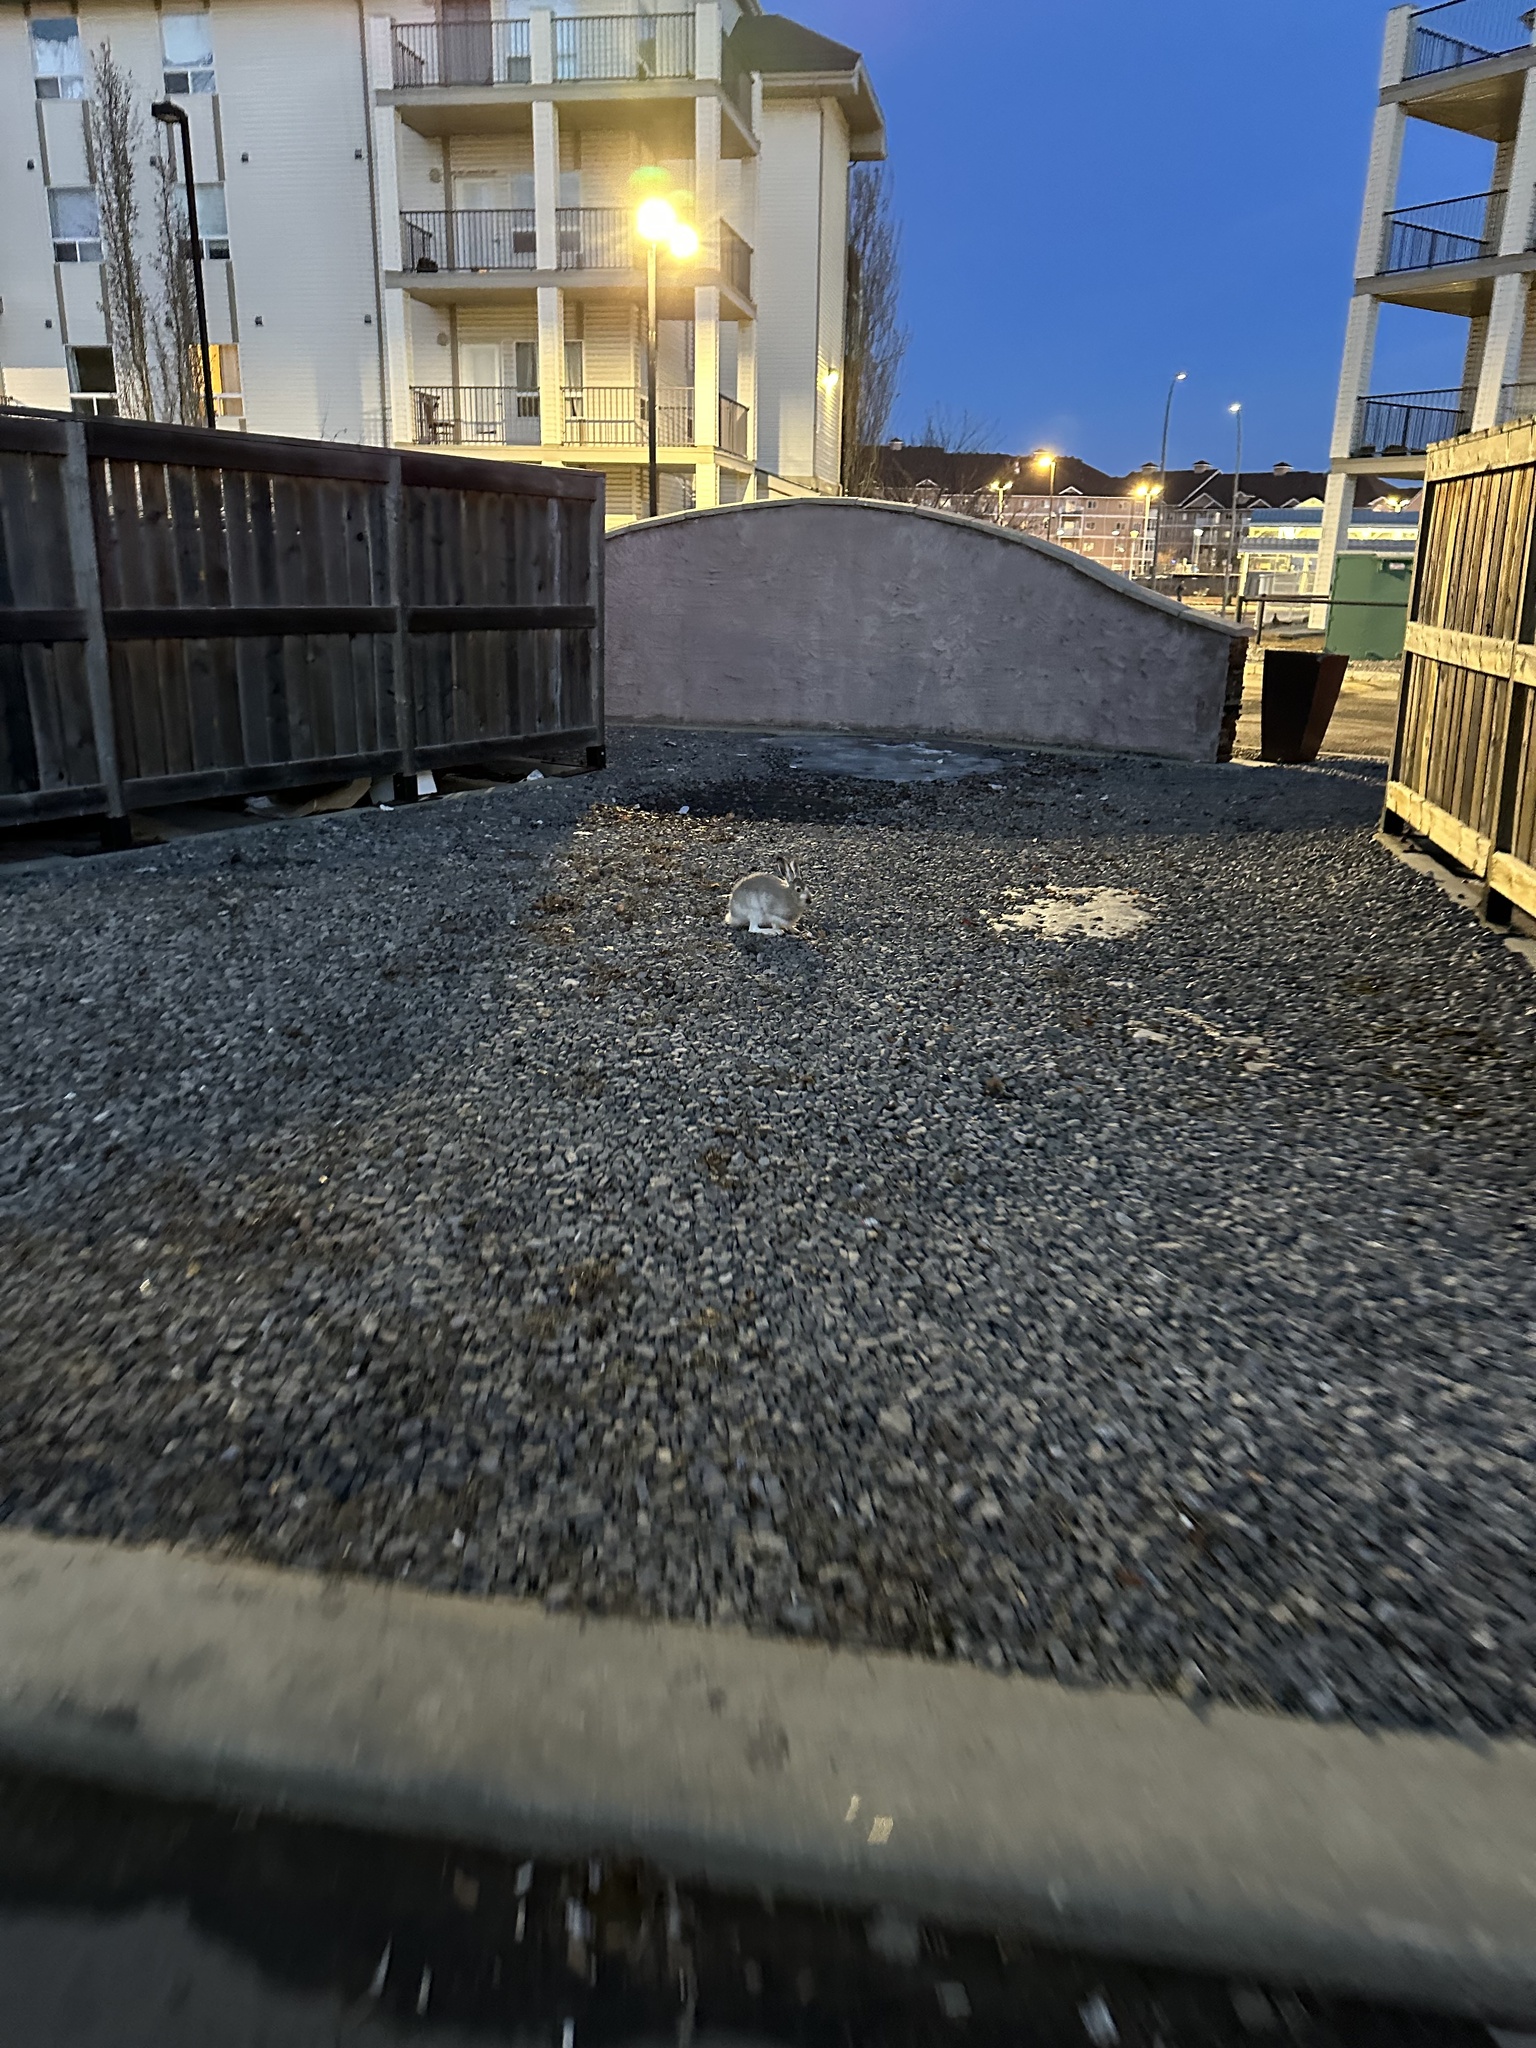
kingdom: Animalia
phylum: Chordata
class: Mammalia
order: Lagomorpha
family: Leporidae
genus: Lepus
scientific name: Lepus townsendii
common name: White-tailed jackrabbit
